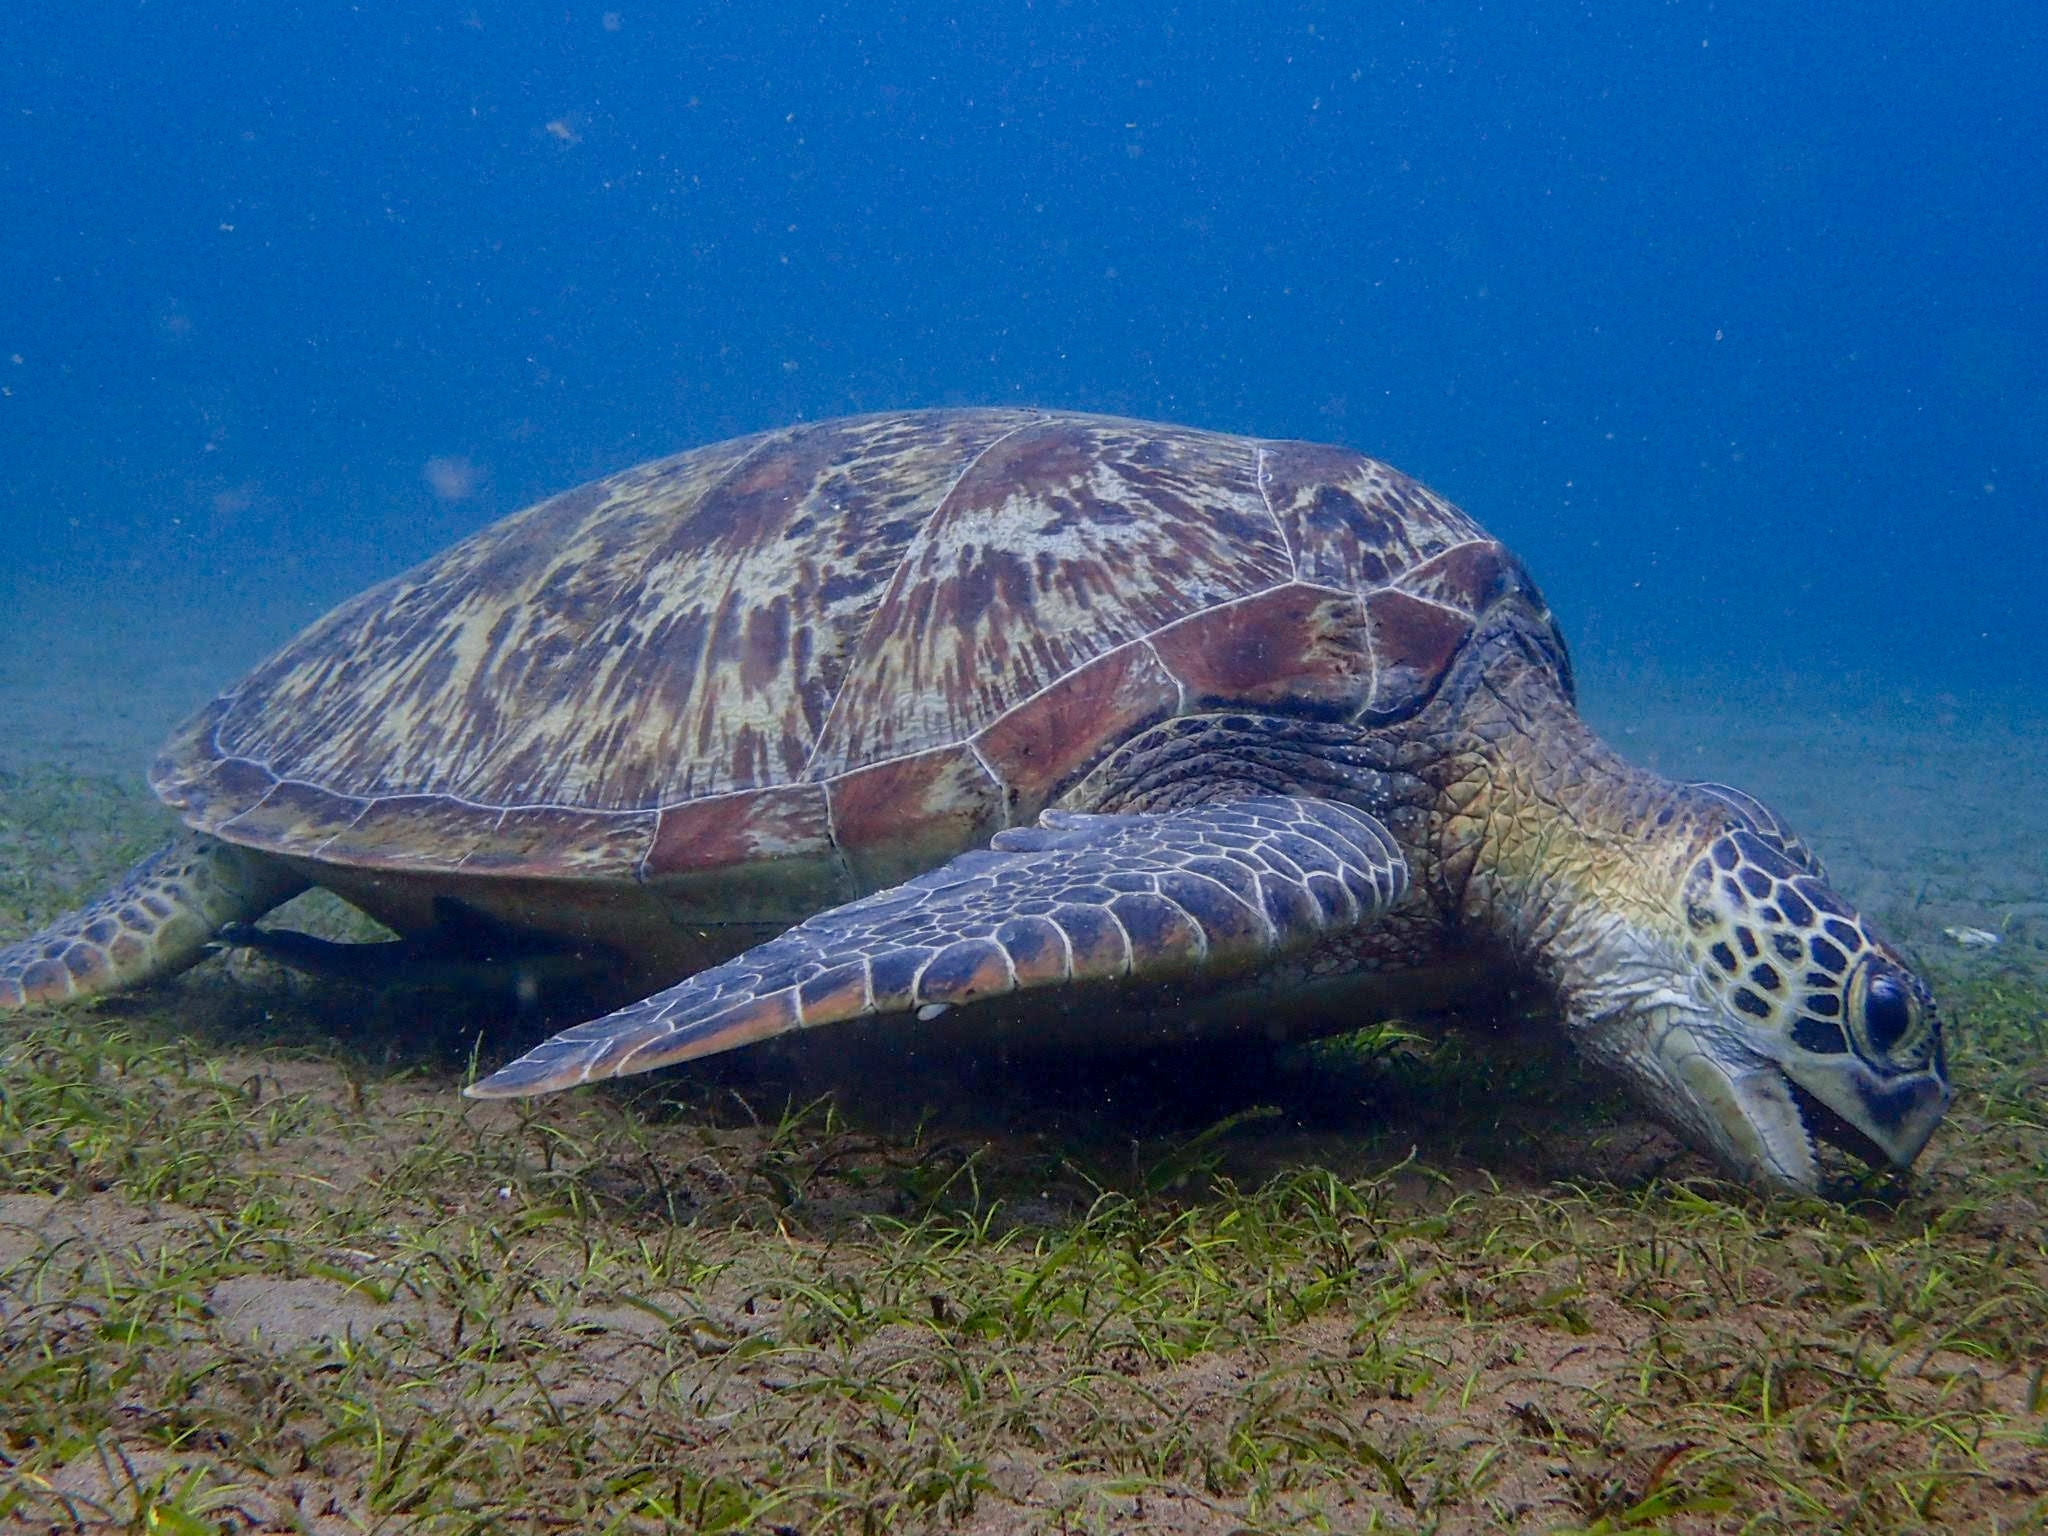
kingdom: Animalia
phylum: Chordata
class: Testudines
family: Cheloniidae
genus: Chelonia
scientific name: Chelonia mydas
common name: Green turtle
